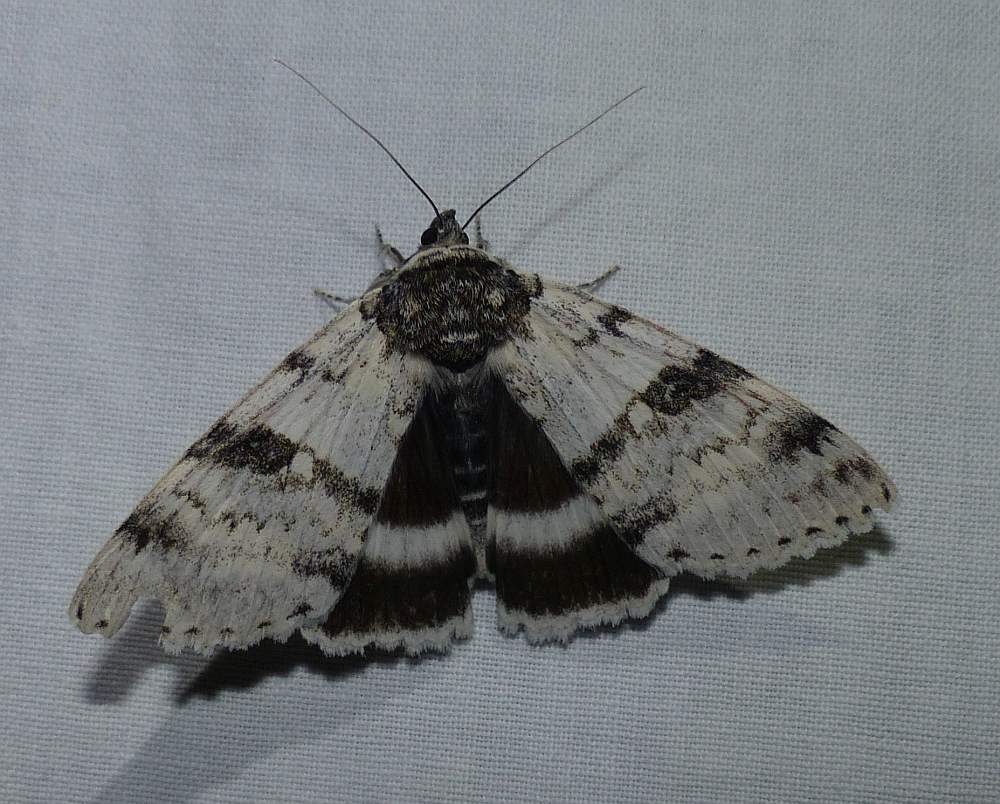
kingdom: Animalia
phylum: Arthropoda
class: Insecta
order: Lepidoptera
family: Erebidae
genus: Catocala
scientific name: Catocala relicta
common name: White underwing
